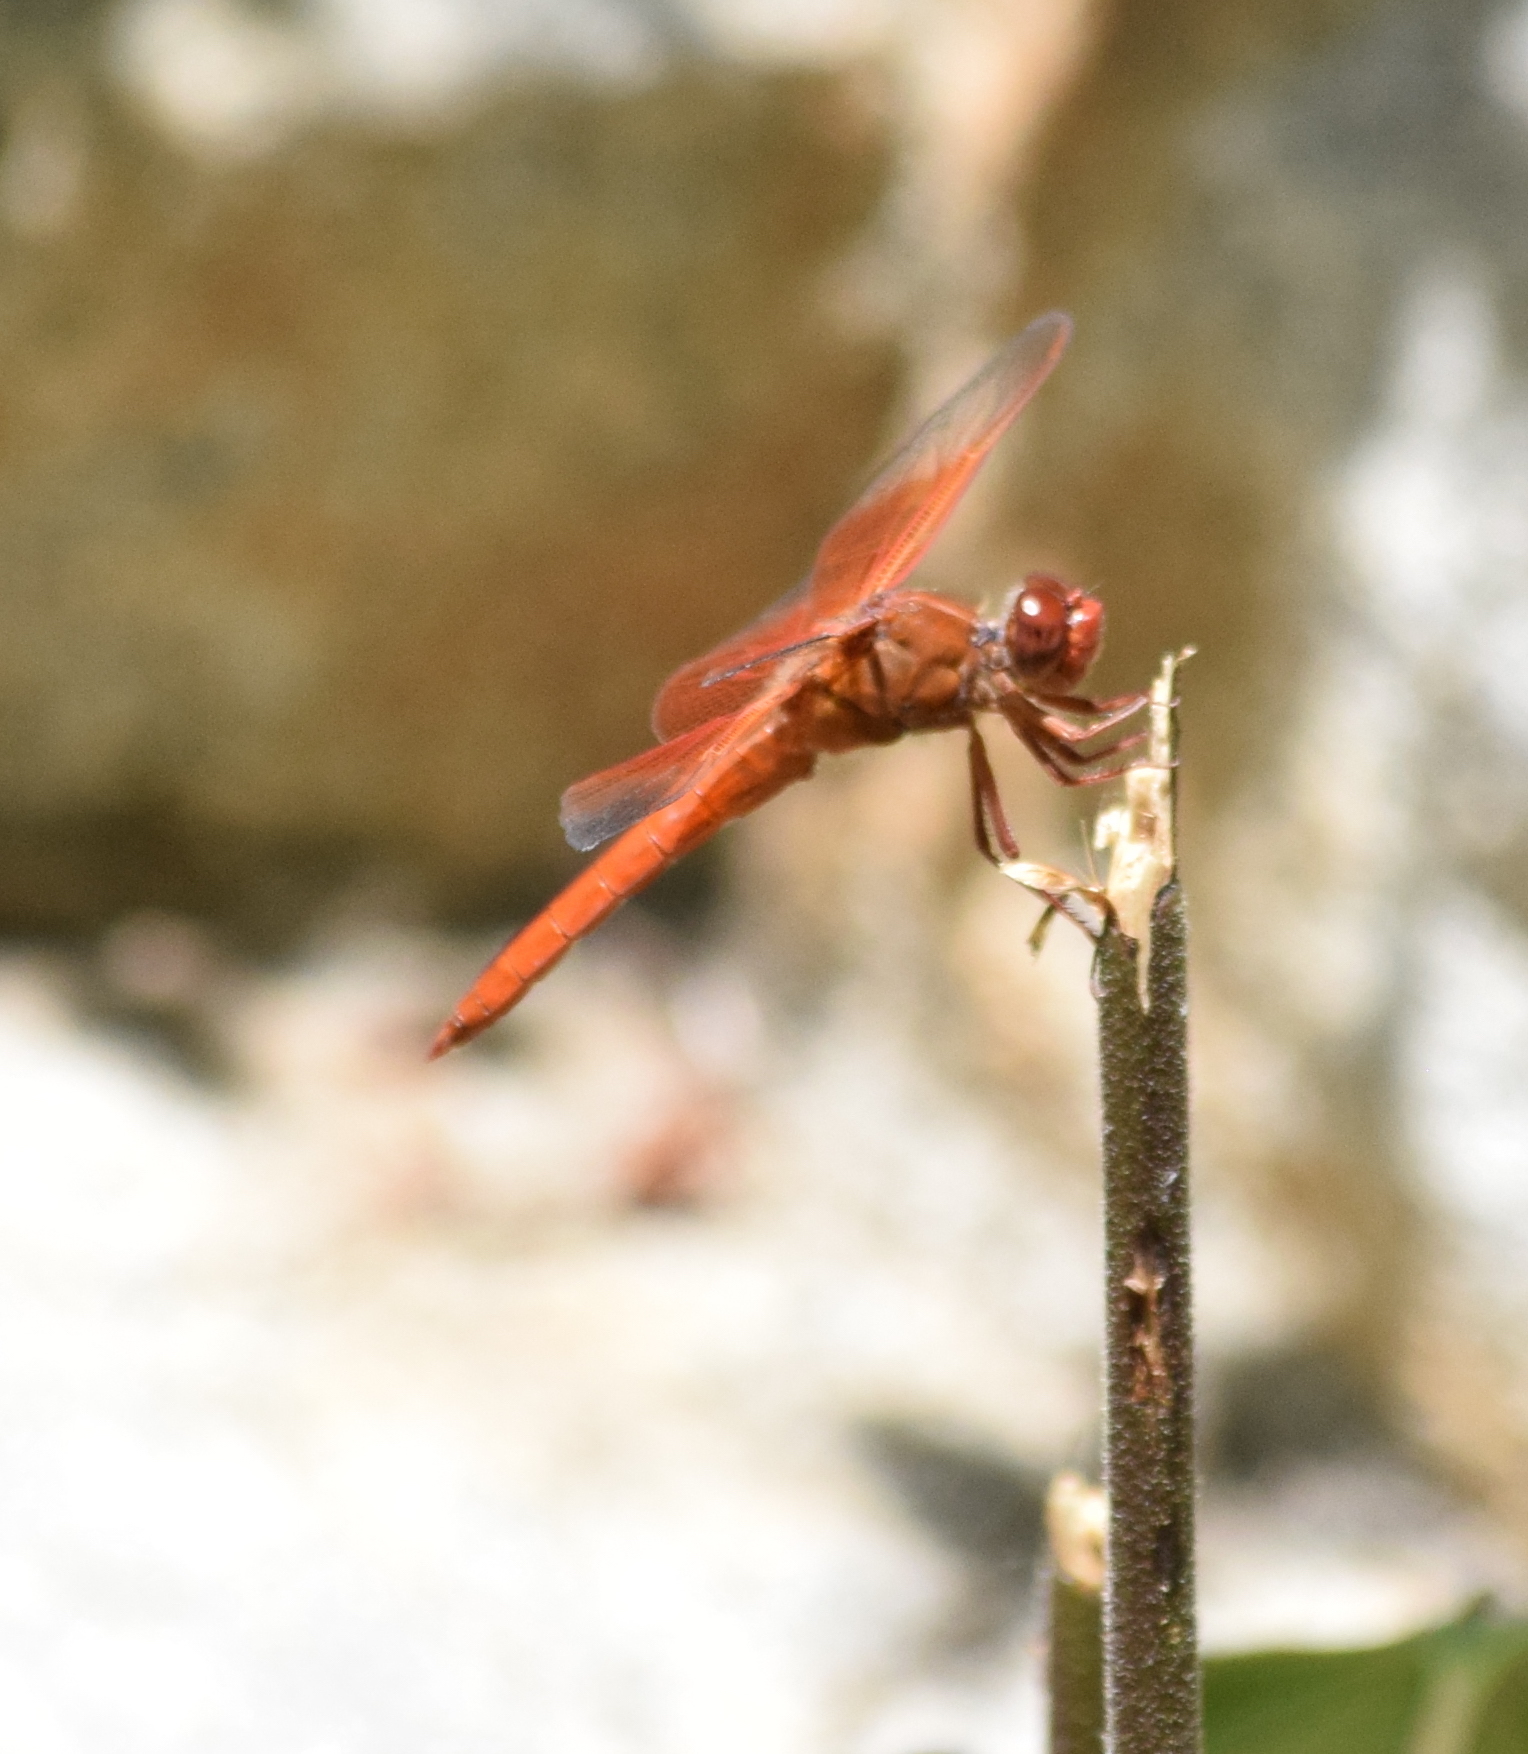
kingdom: Animalia
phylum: Arthropoda
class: Insecta
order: Odonata
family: Libellulidae
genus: Libellula
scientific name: Libellula saturata
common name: Flame skimmer
